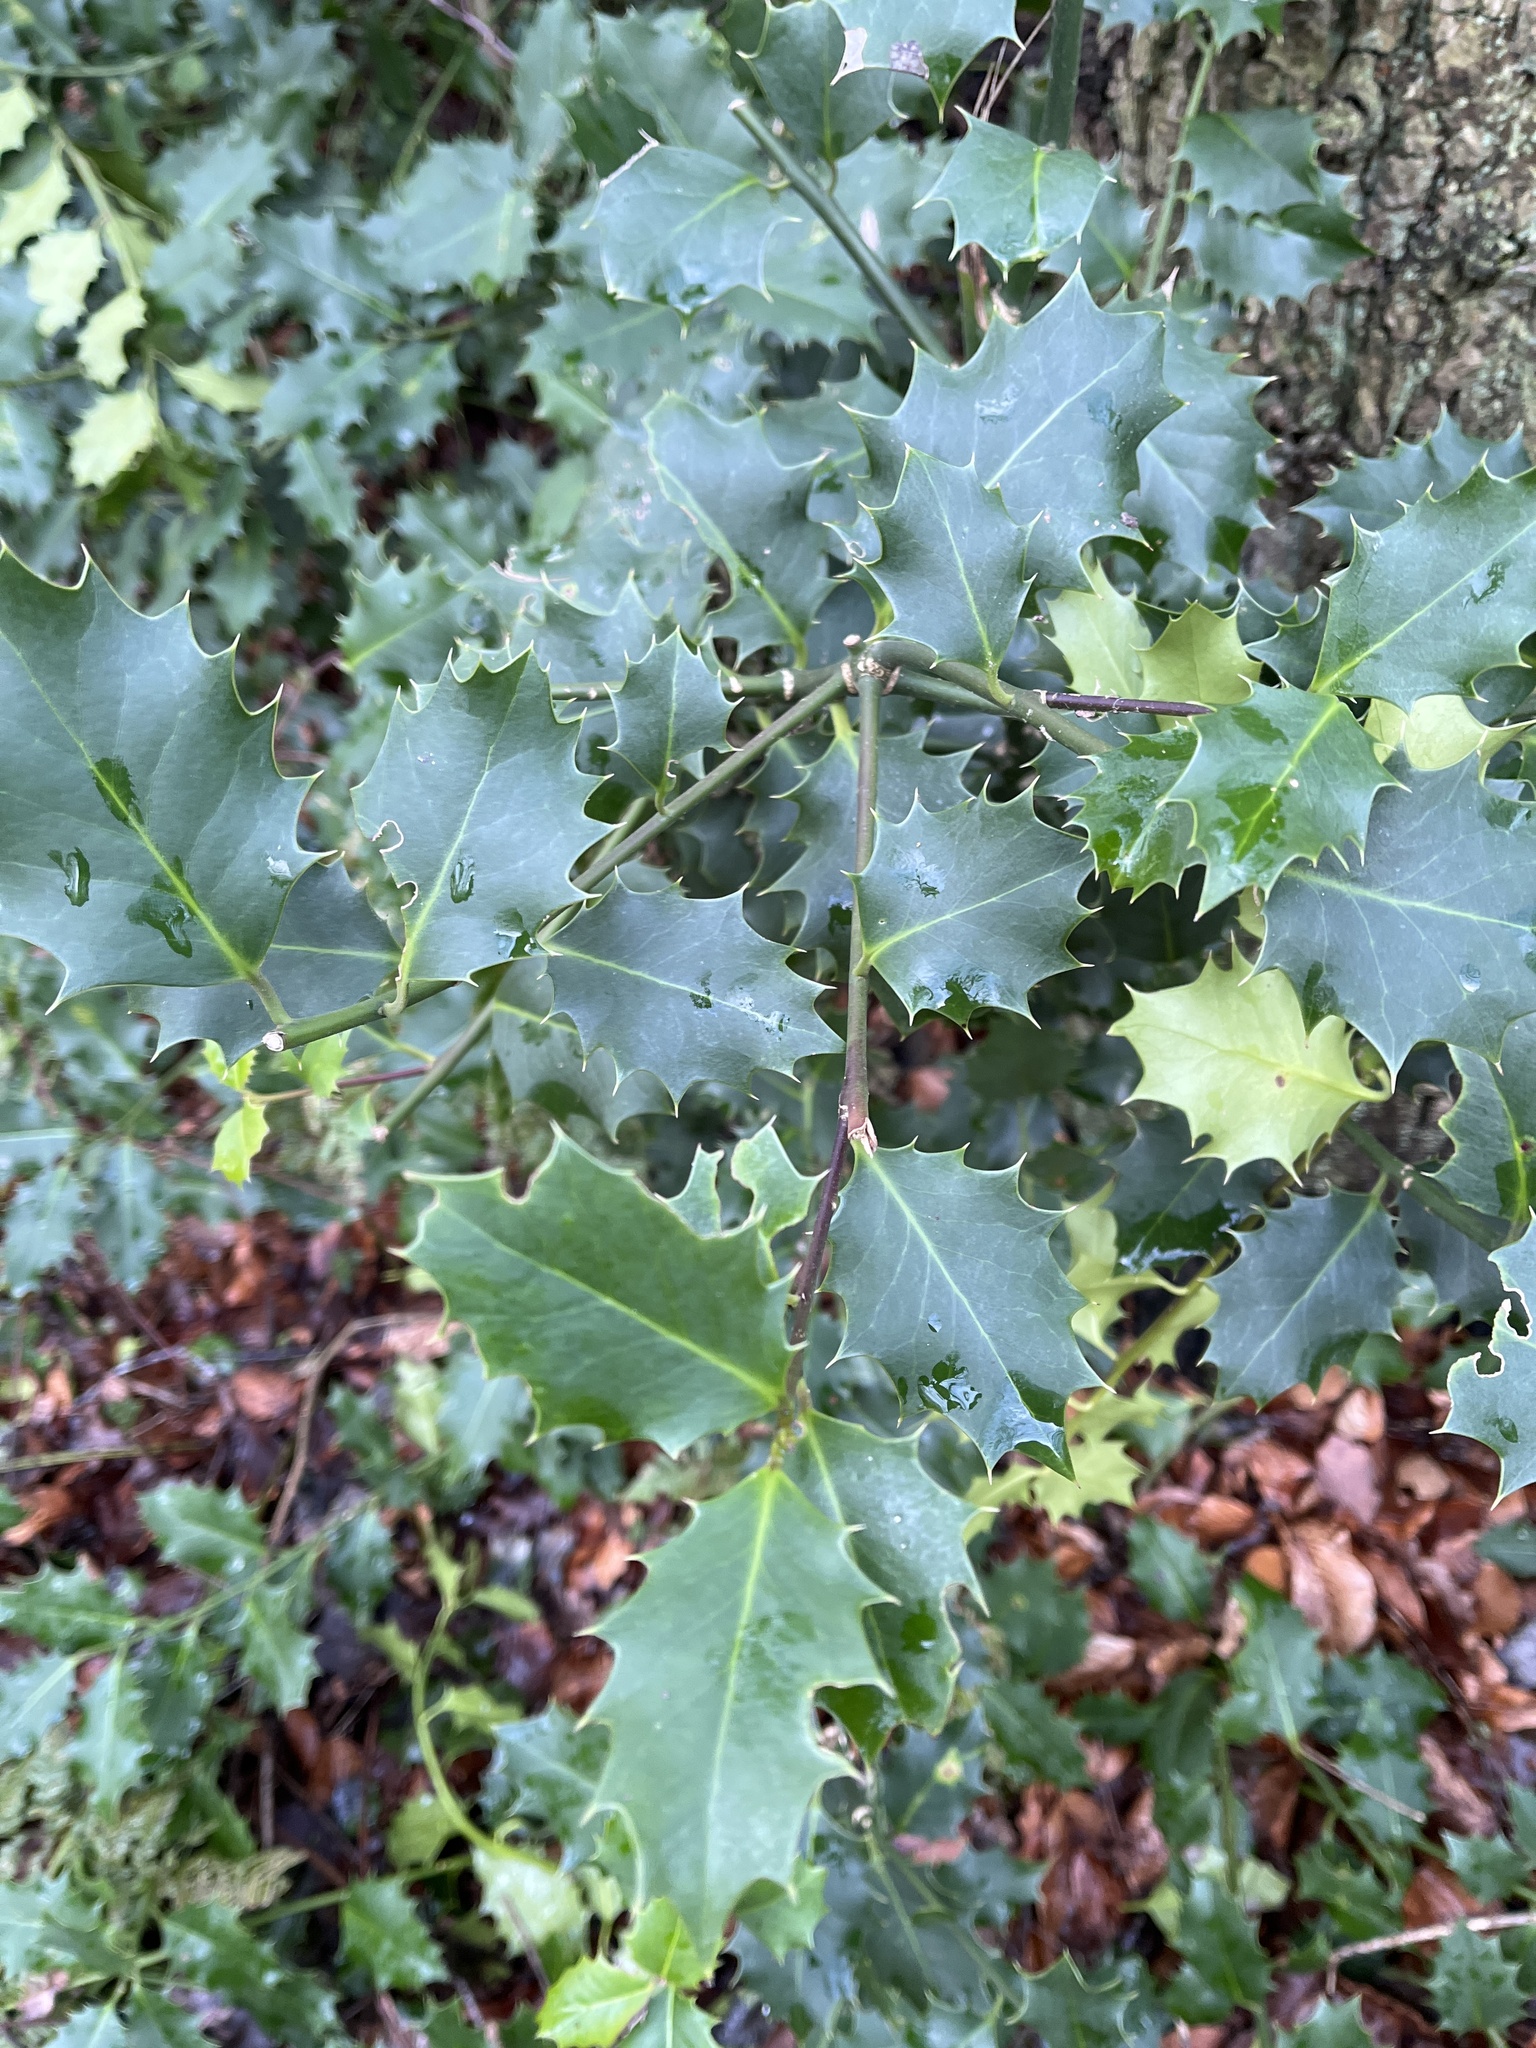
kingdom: Plantae
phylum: Tracheophyta
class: Magnoliopsida
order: Aquifoliales
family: Aquifoliaceae
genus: Ilex
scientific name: Ilex aquifolium
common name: English holly
